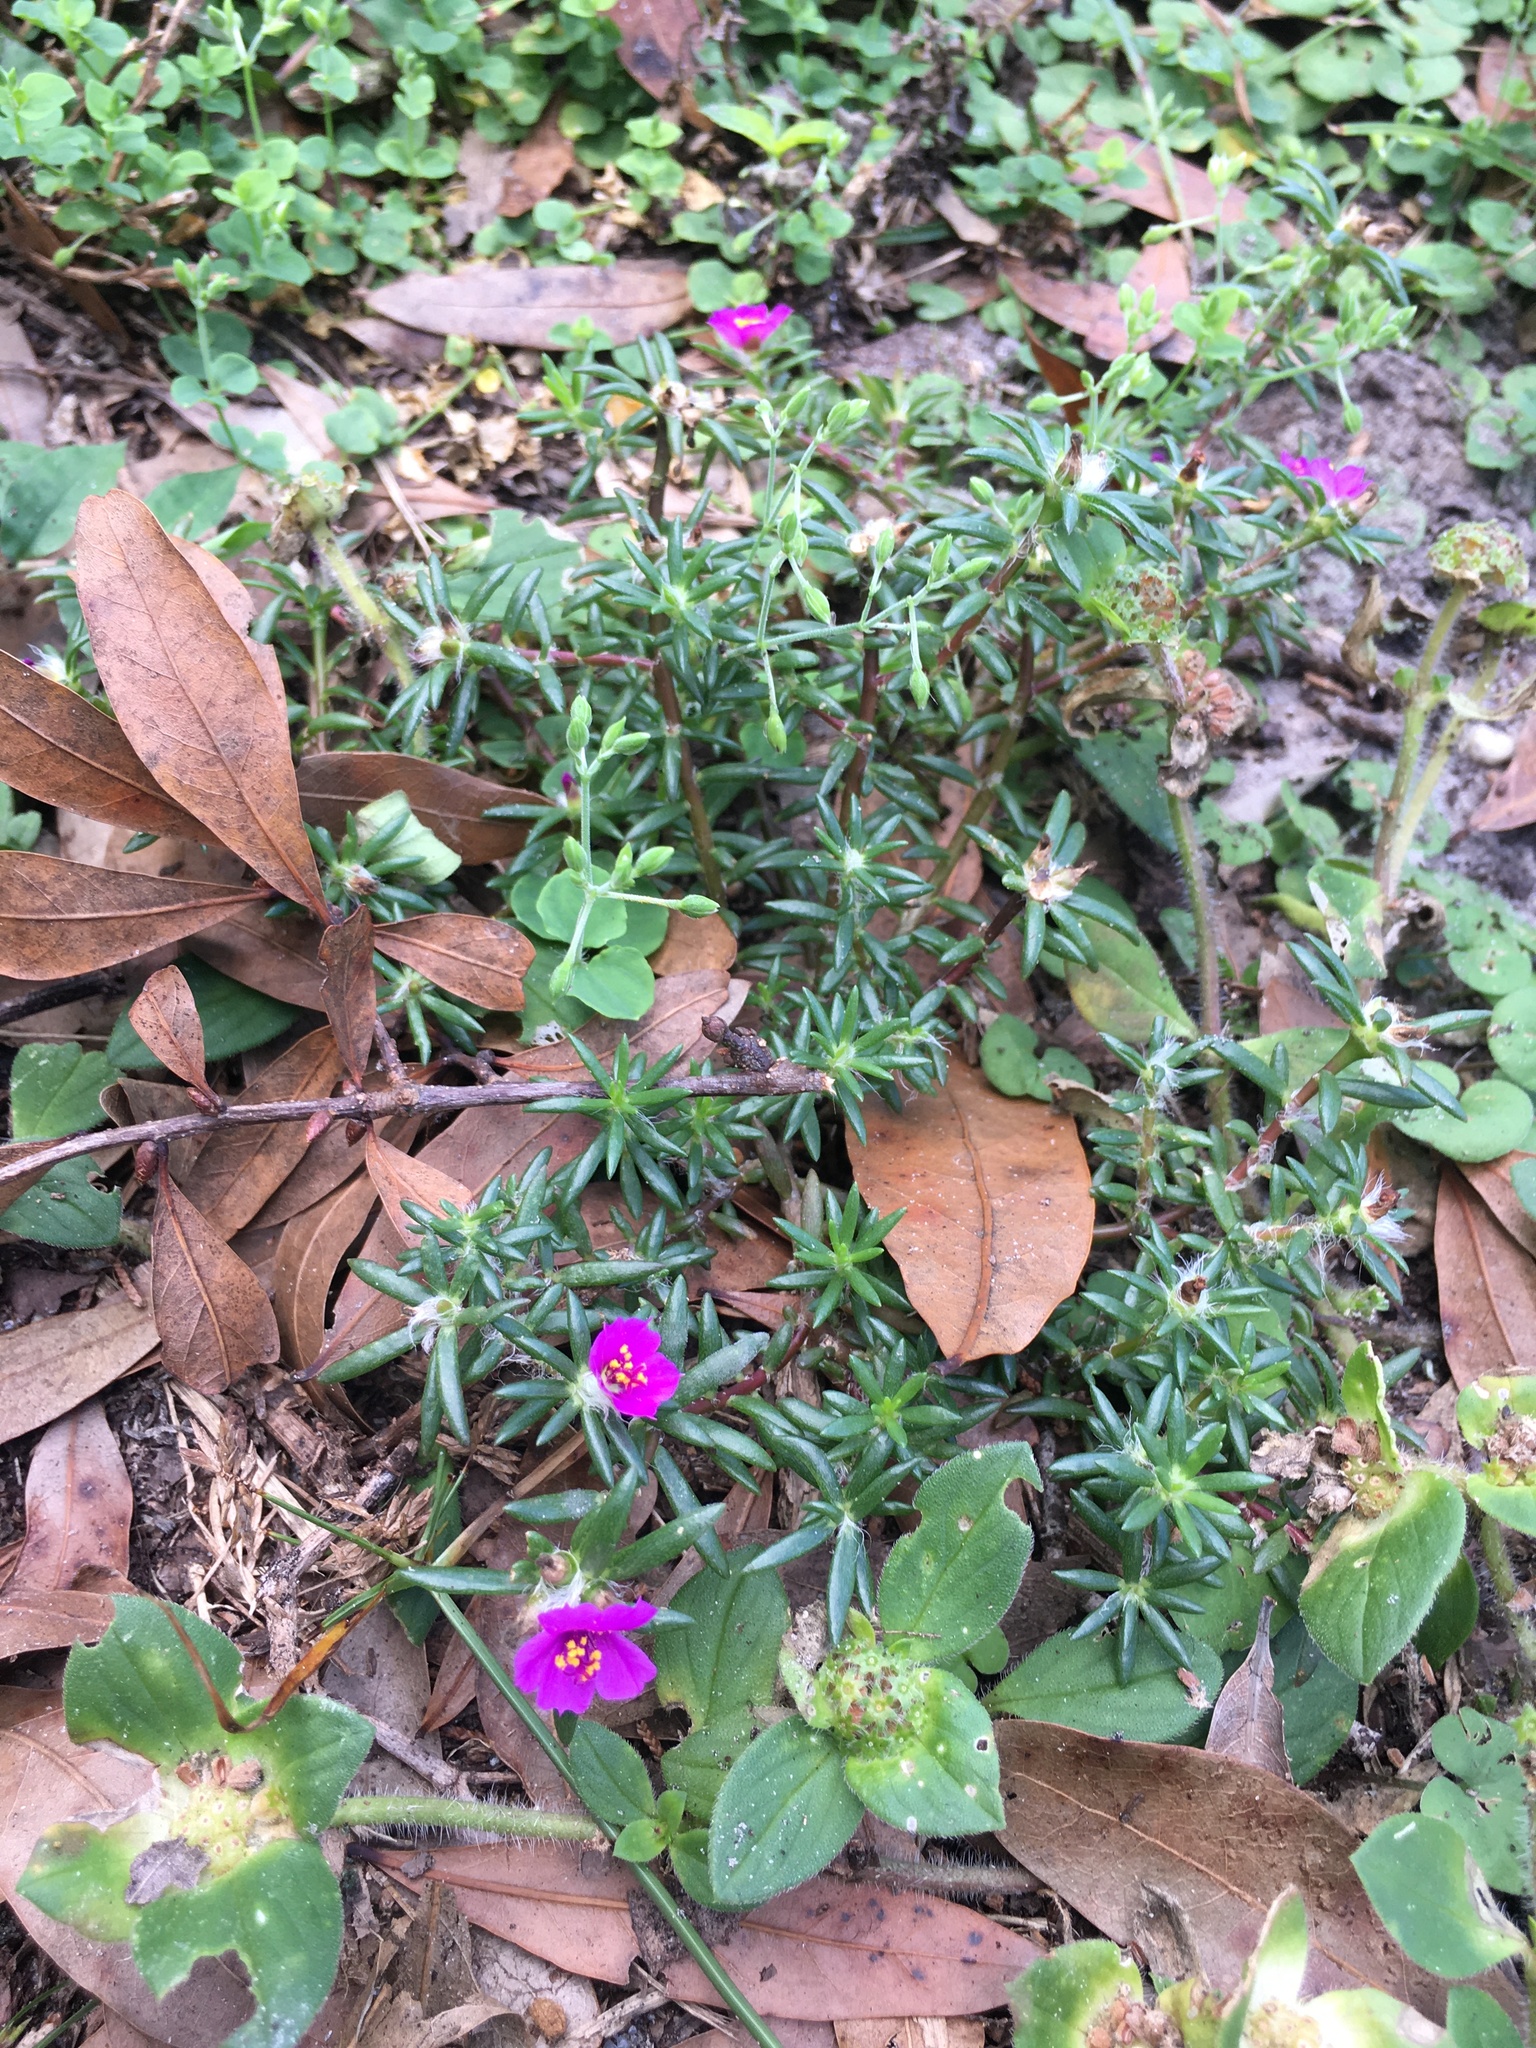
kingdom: Plantae
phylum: Tracheophyta
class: Magnoliopsida
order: Caryophyllales
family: Portulacaceae
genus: Portulaca
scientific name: Portulaca pilosa
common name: Kiss me quick
